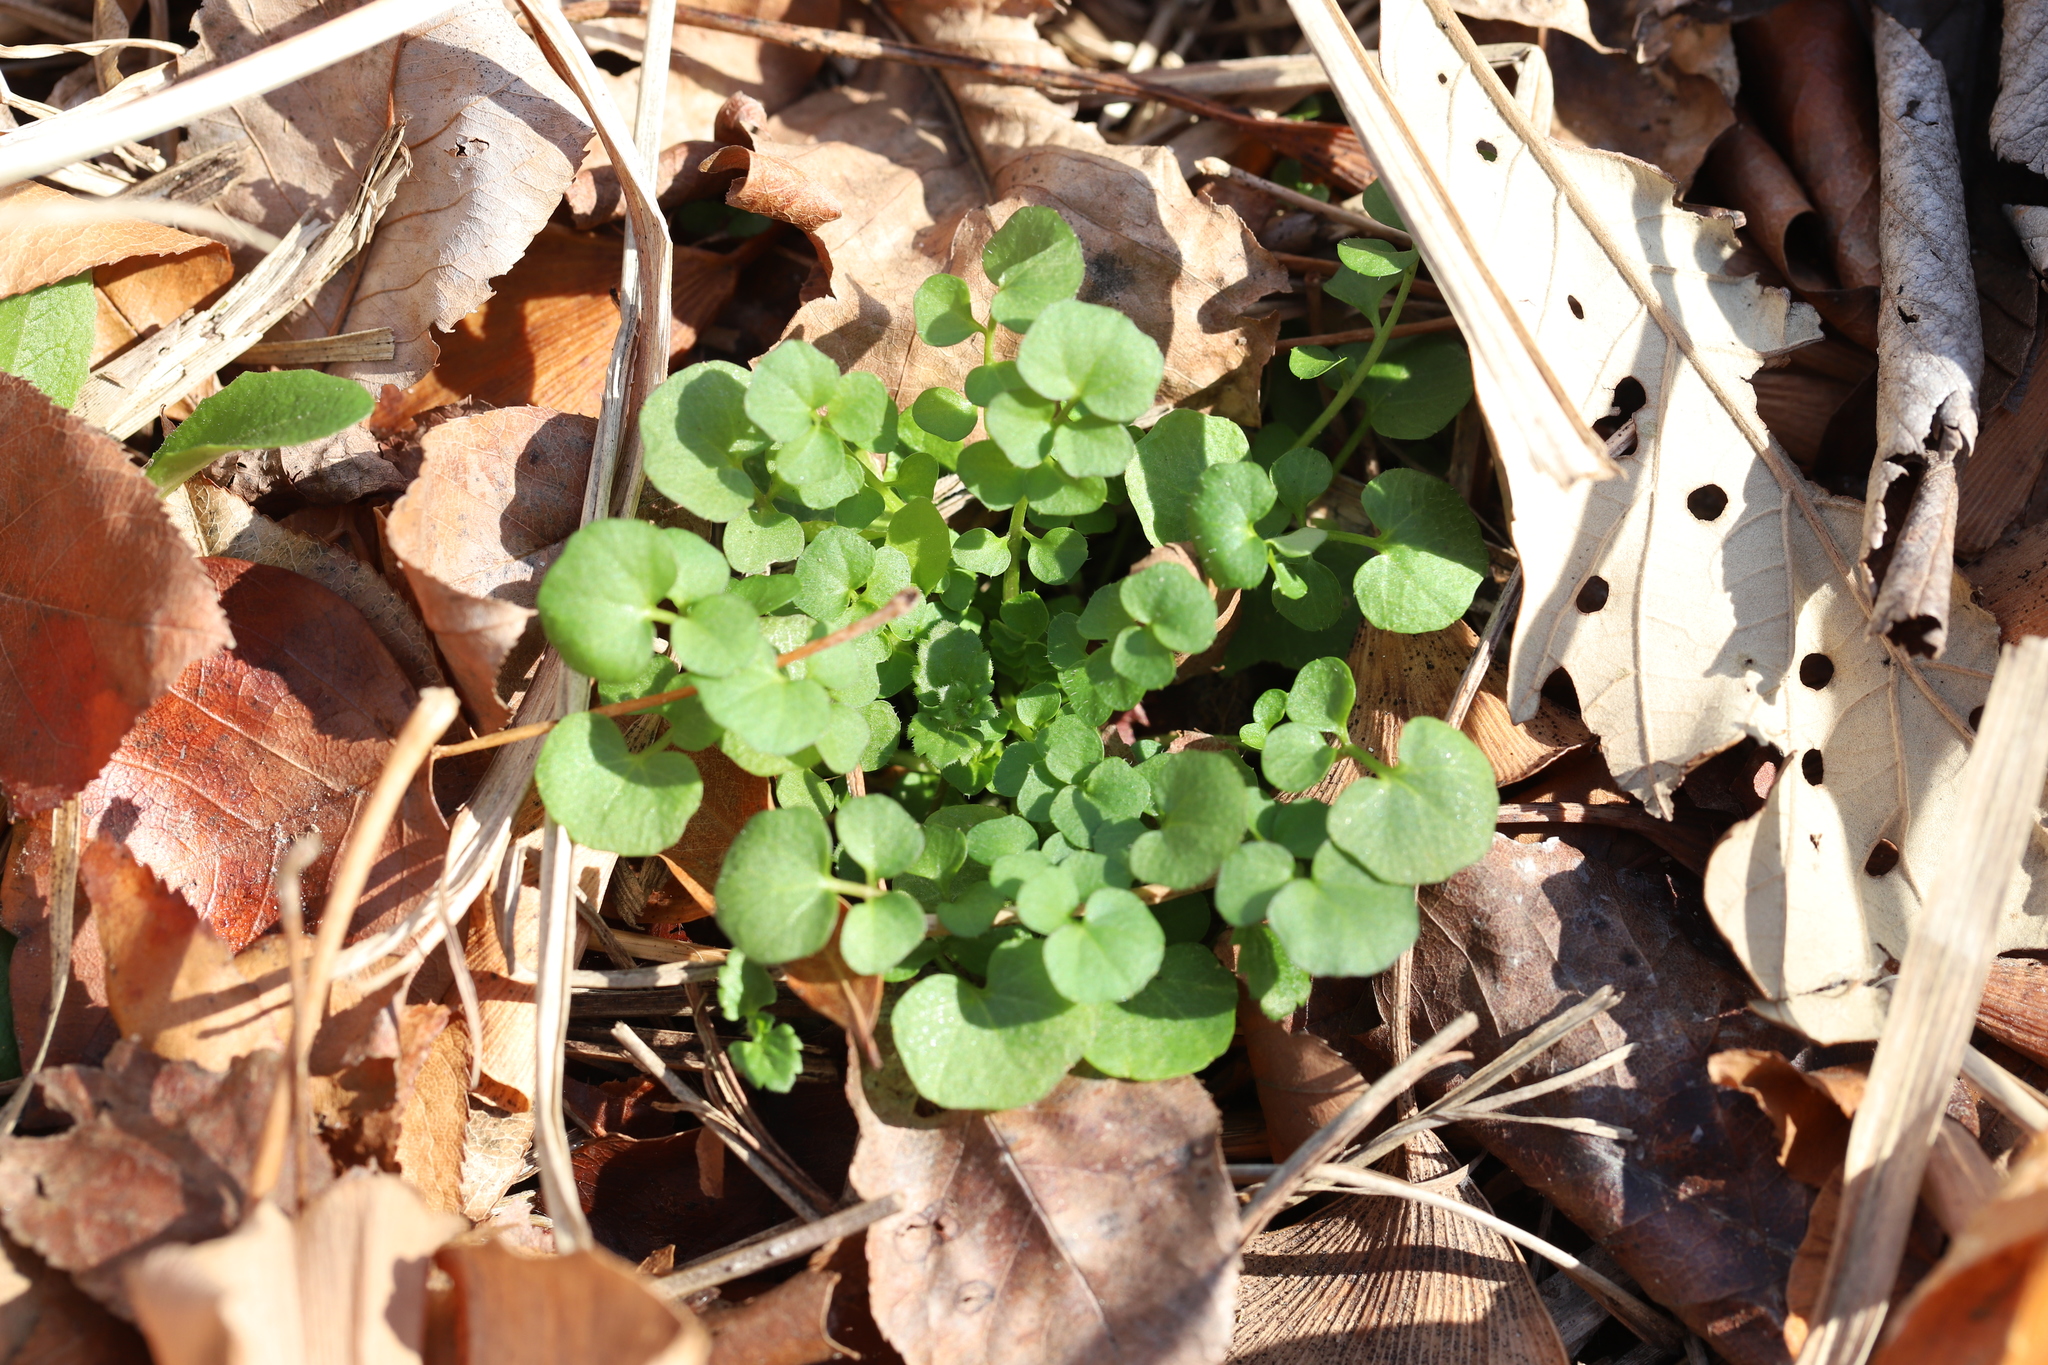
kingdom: Plantae
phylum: Tracheophyta
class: Magnoliopsida
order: Brassicales
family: Brassicaceae
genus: Cardamine
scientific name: Cardamine hirsuta
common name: Hairy bittercress
